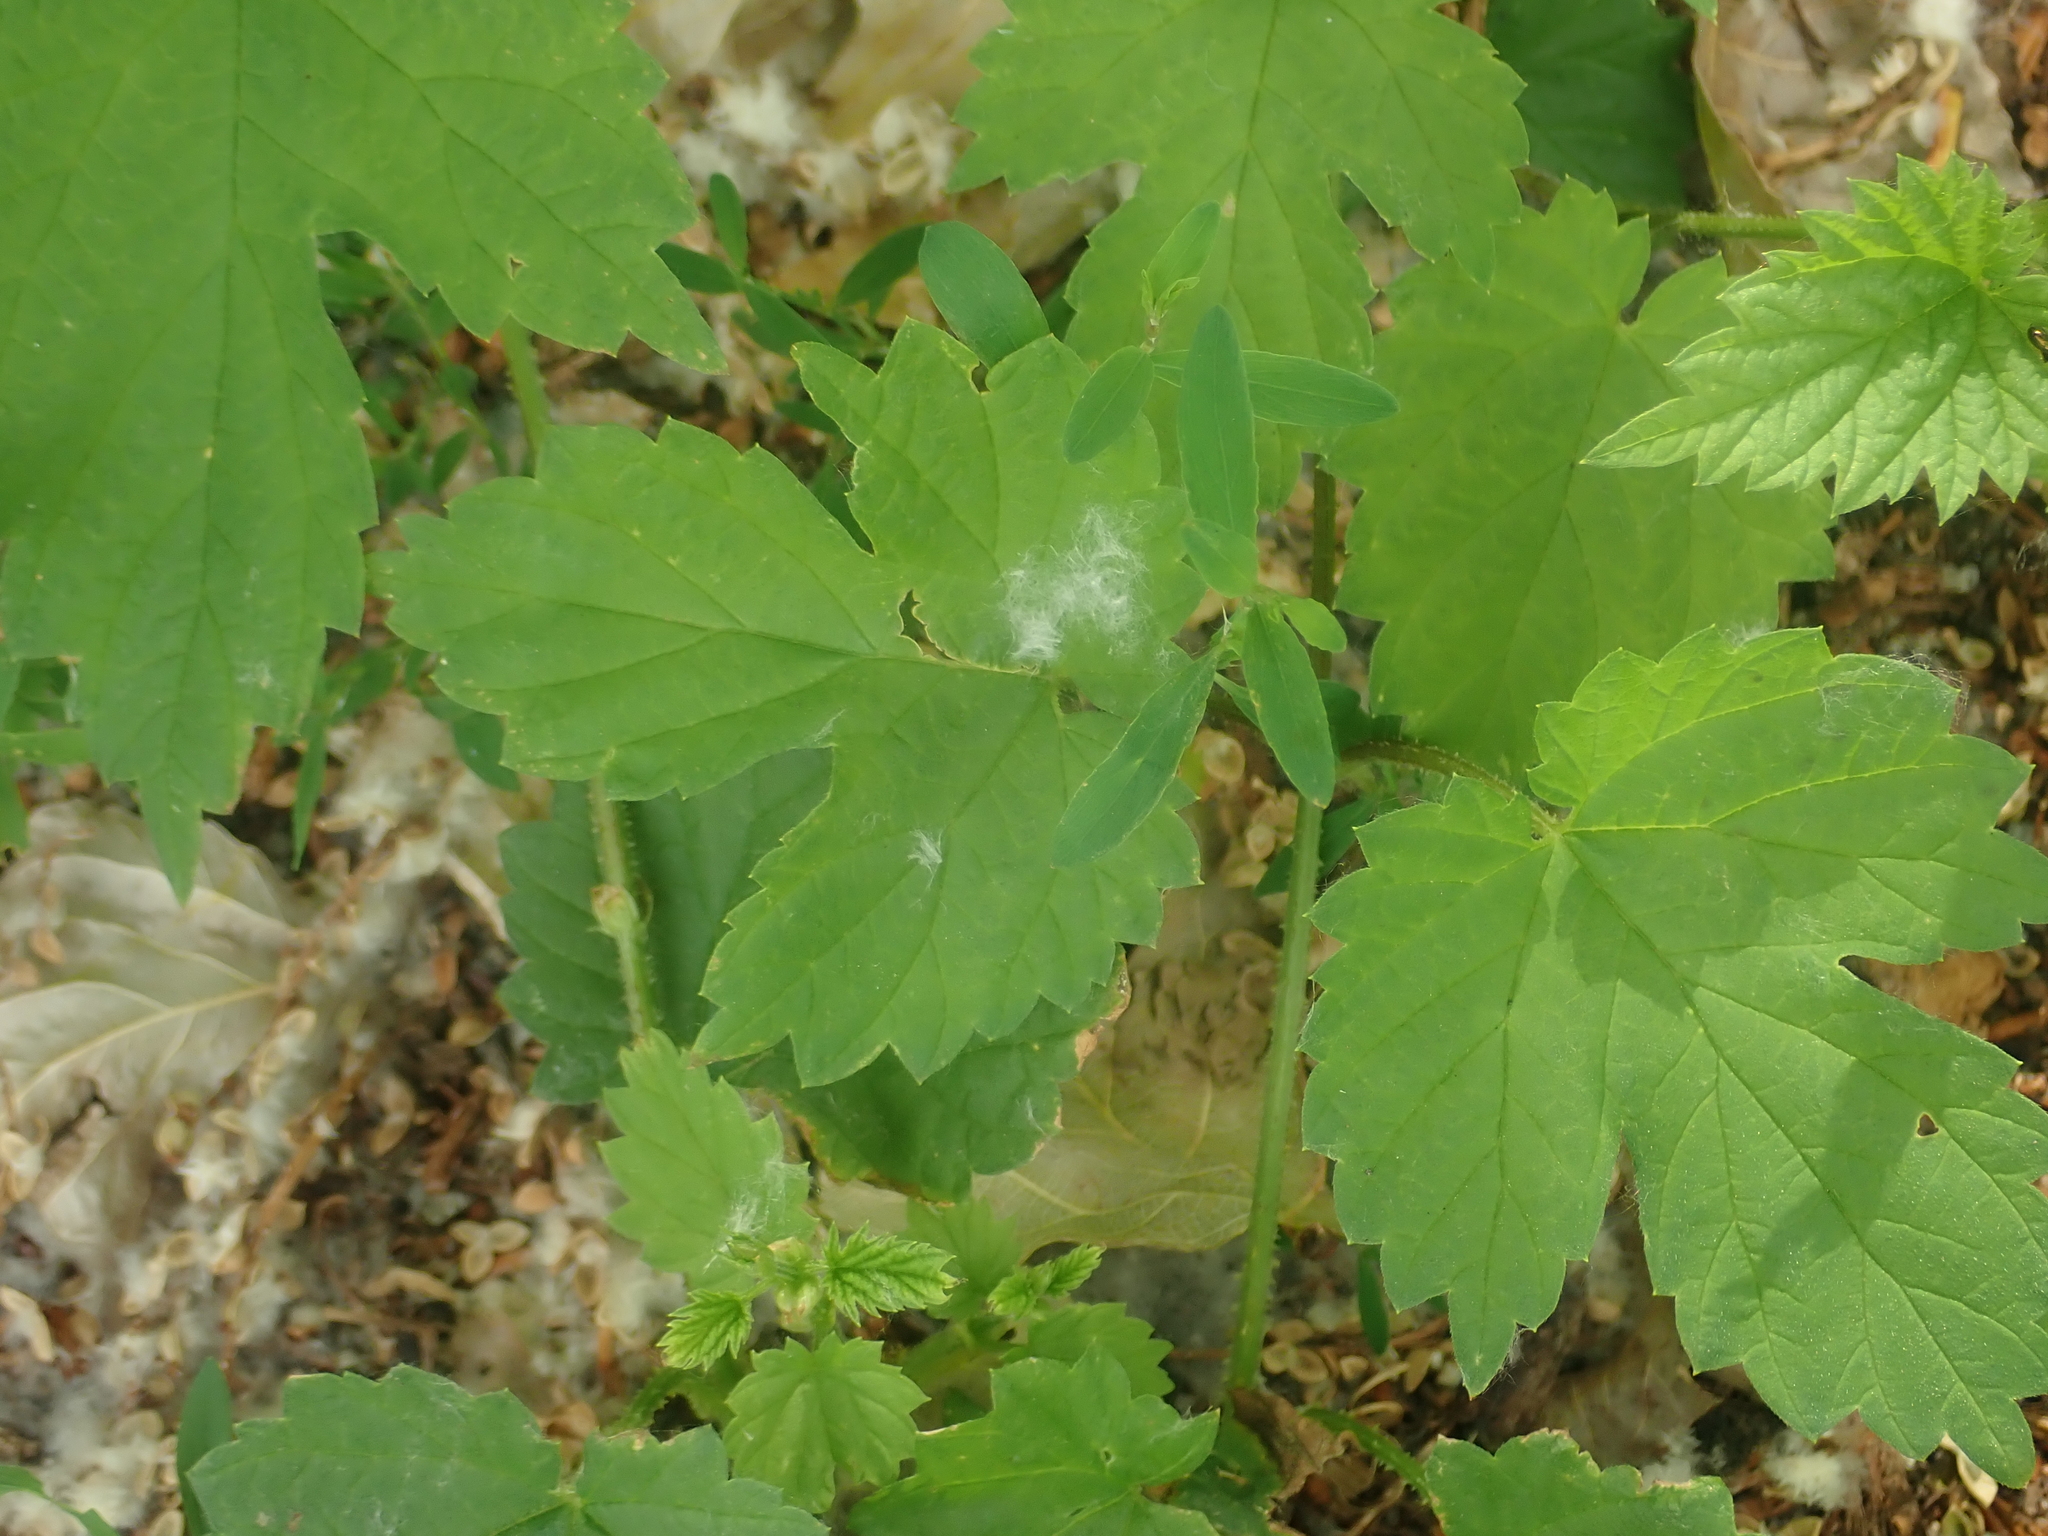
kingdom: Plantae
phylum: Tracheophyta
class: Magnoliopsida
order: Rosales
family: Cannabaceae
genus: Humulus
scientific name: Humulus lupulus
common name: Hop
